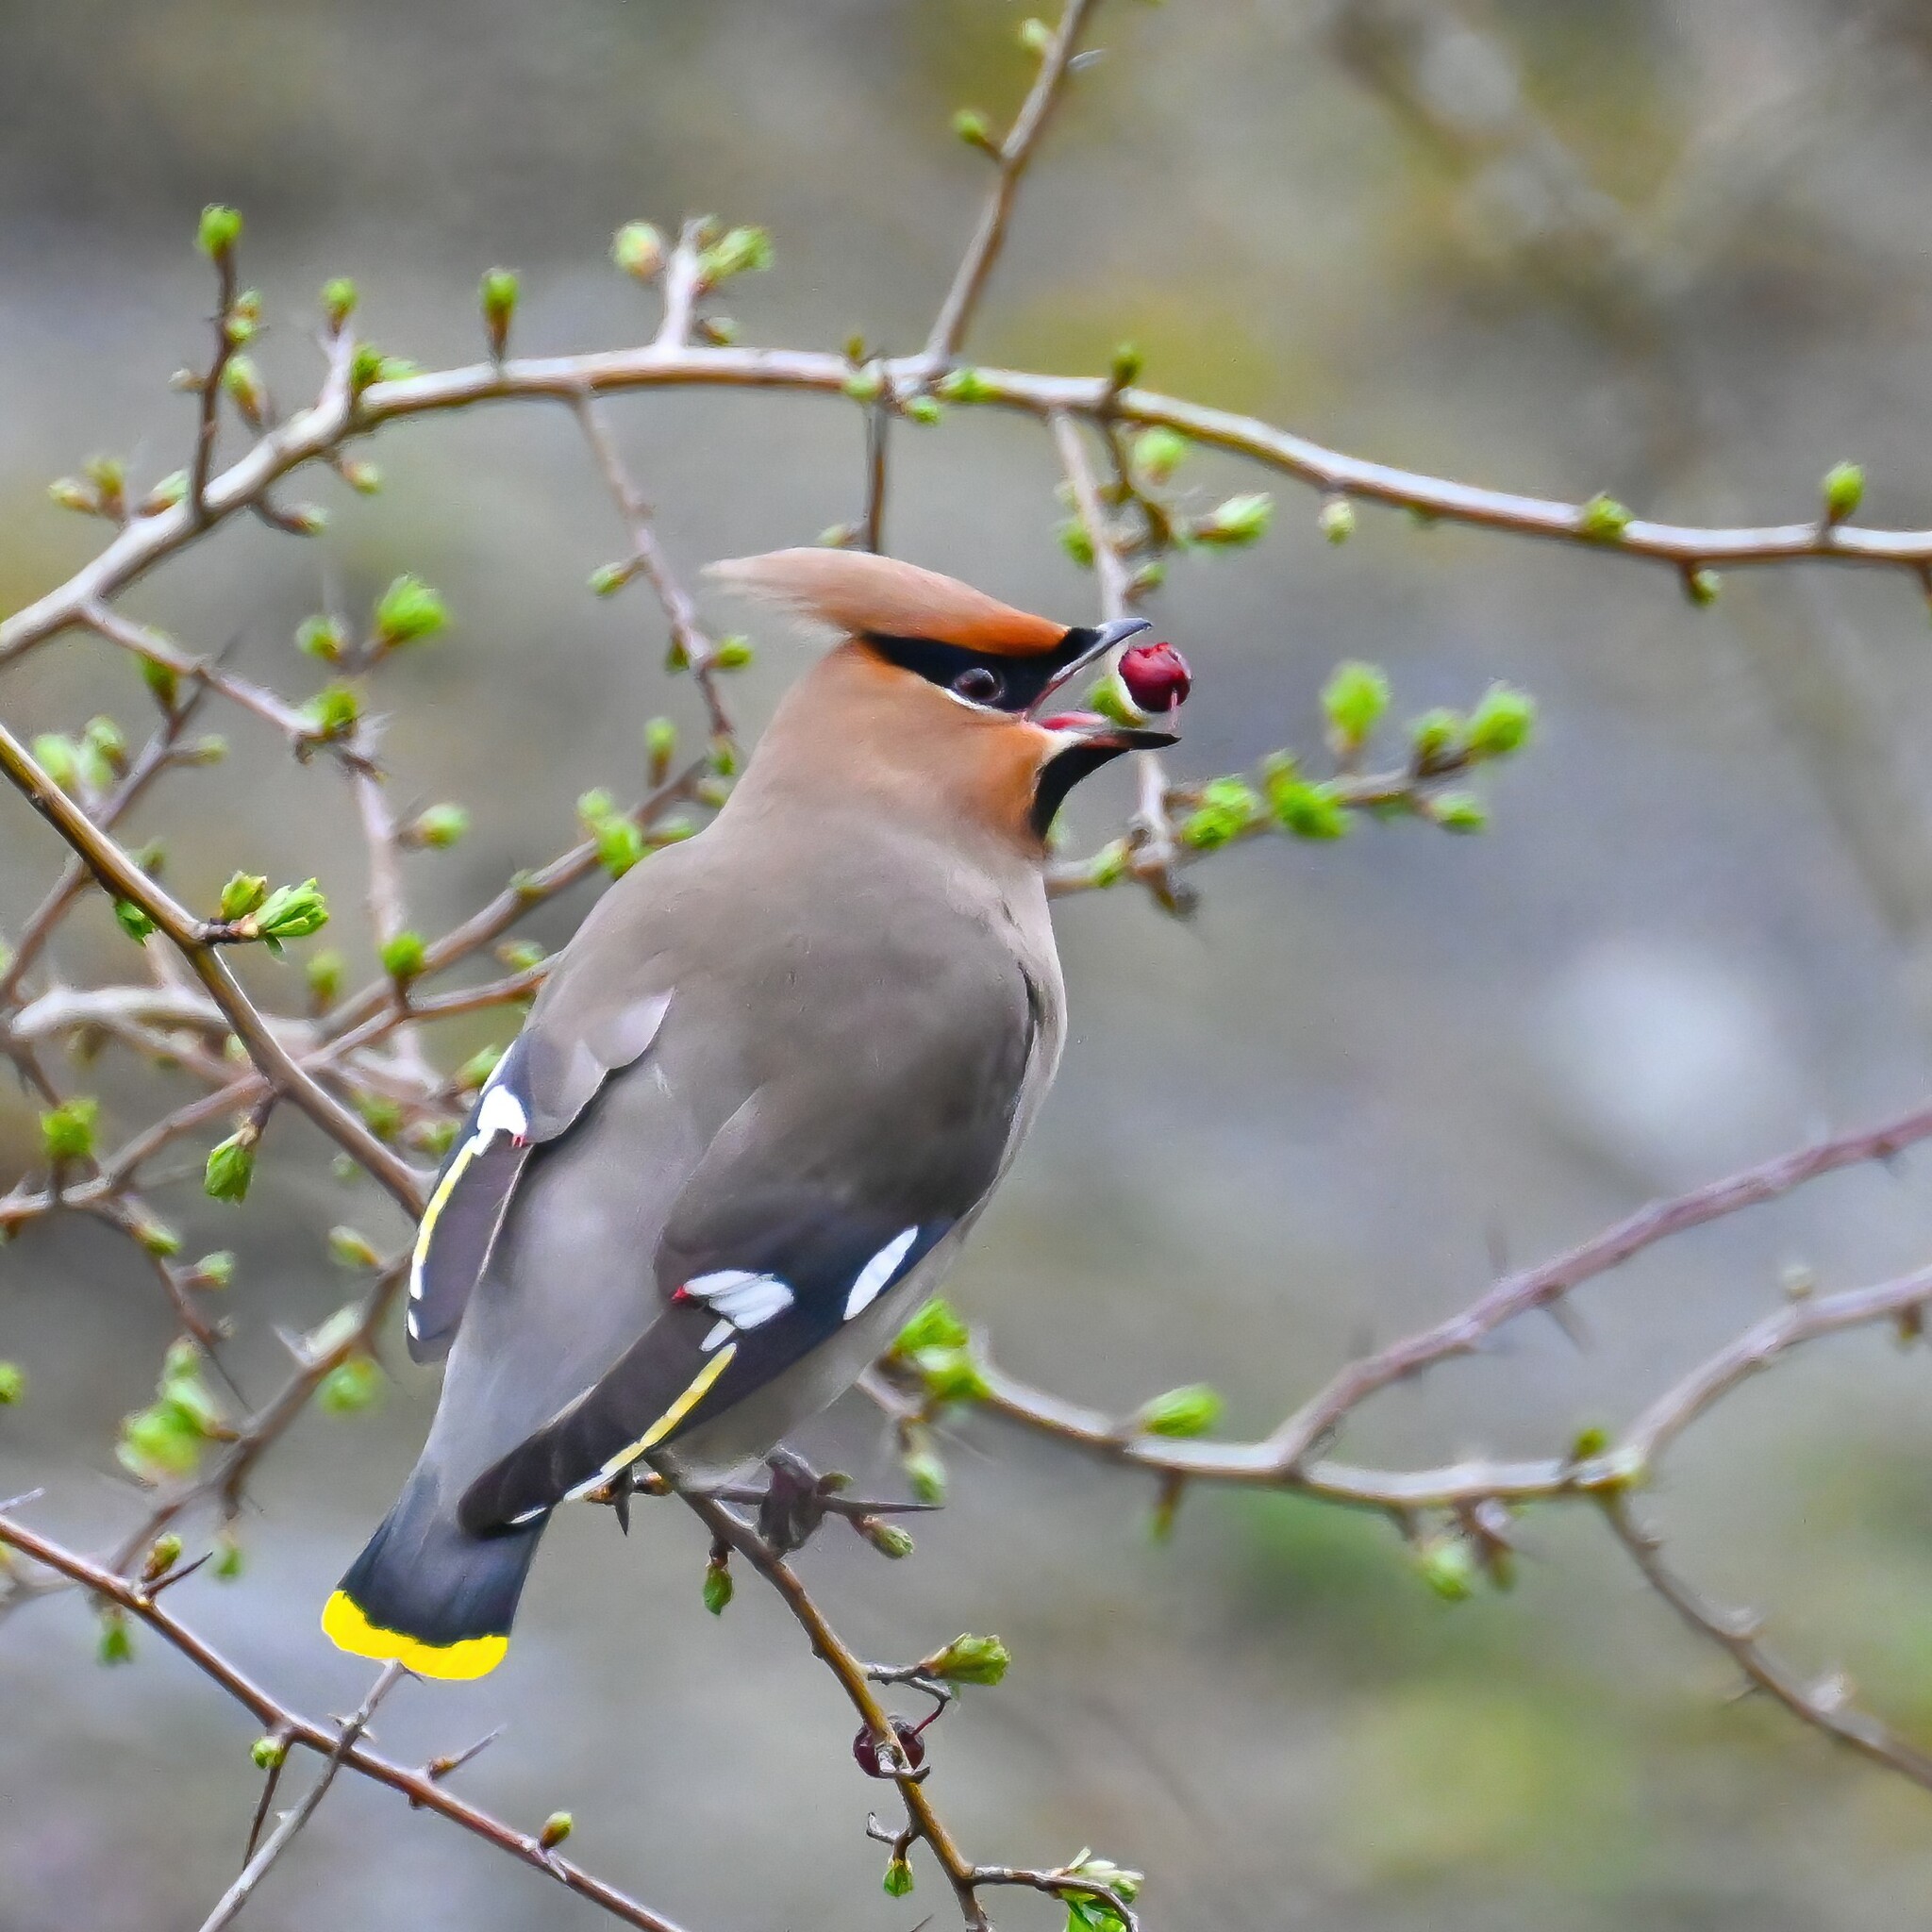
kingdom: Animalia
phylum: Chordata
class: Aves
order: Passeriformes
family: Bombycillidae
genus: Bombycilla
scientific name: Bombycilla garrulus
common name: Bohemian waxwing
